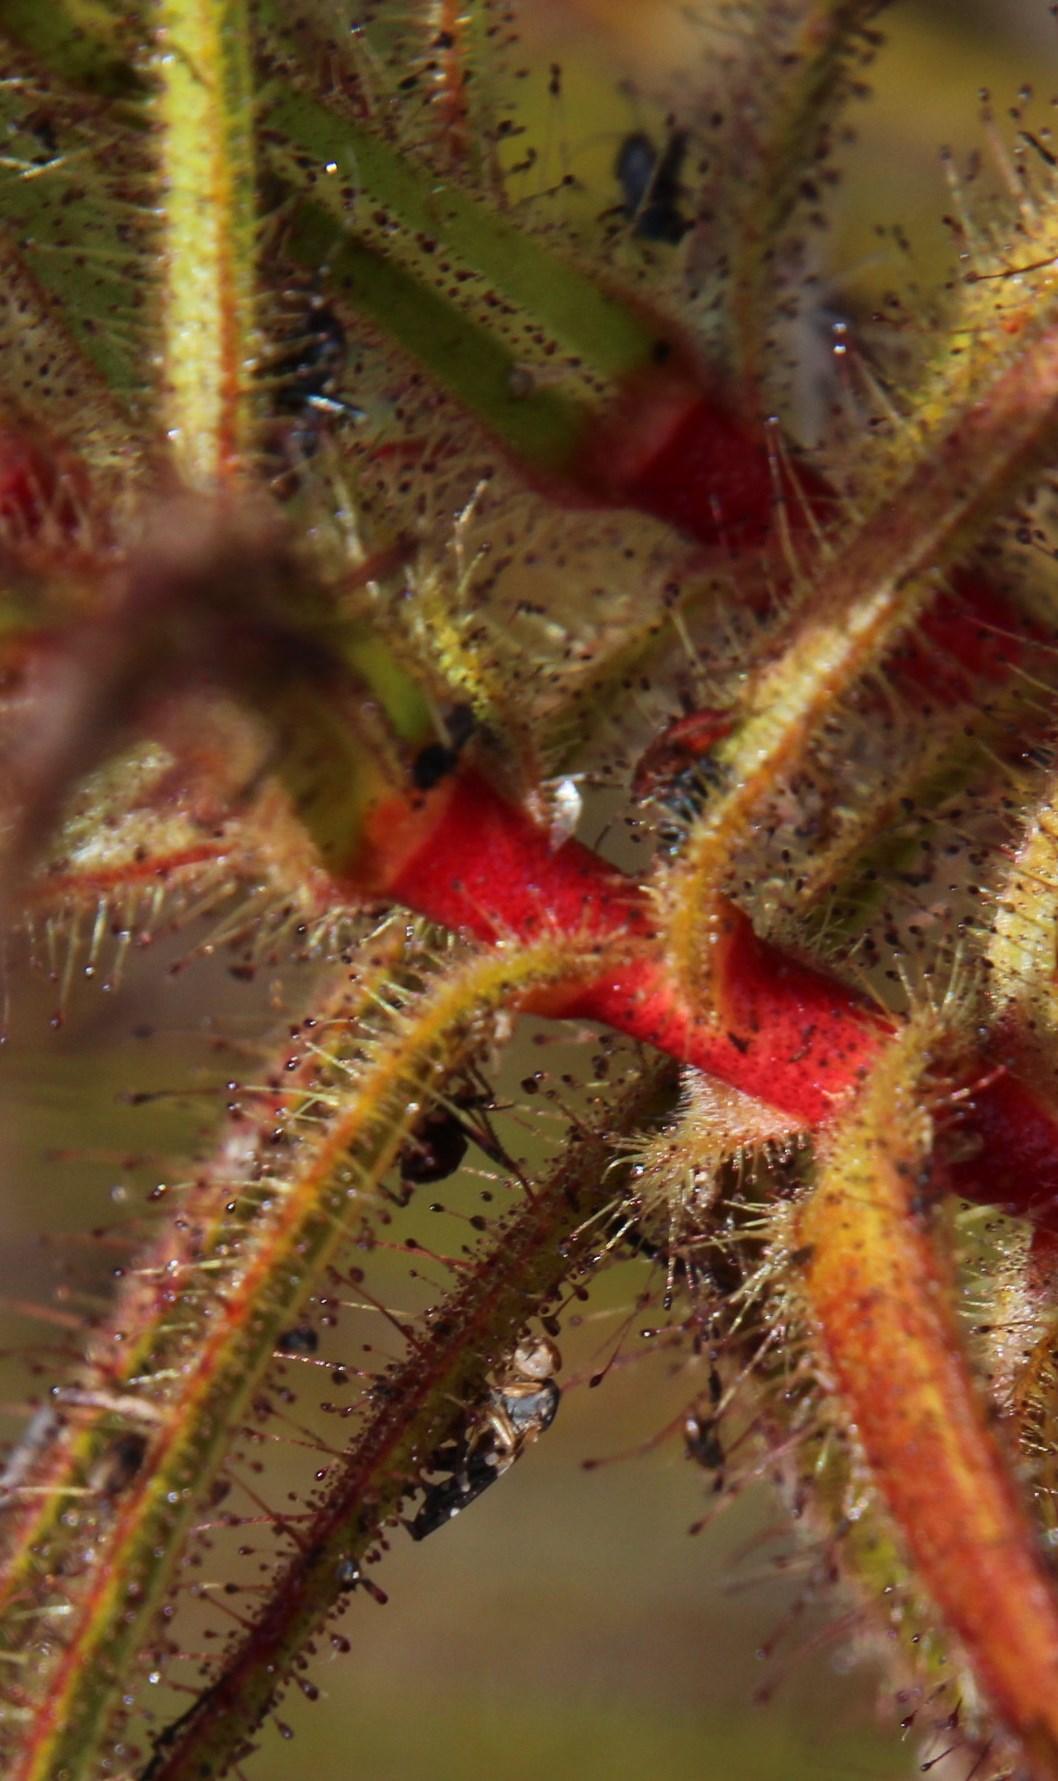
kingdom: Animalia
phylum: Arthropoda
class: Insecta
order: Hemiptera
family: Miridae
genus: Pameridea
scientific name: Pameridea roridulae
